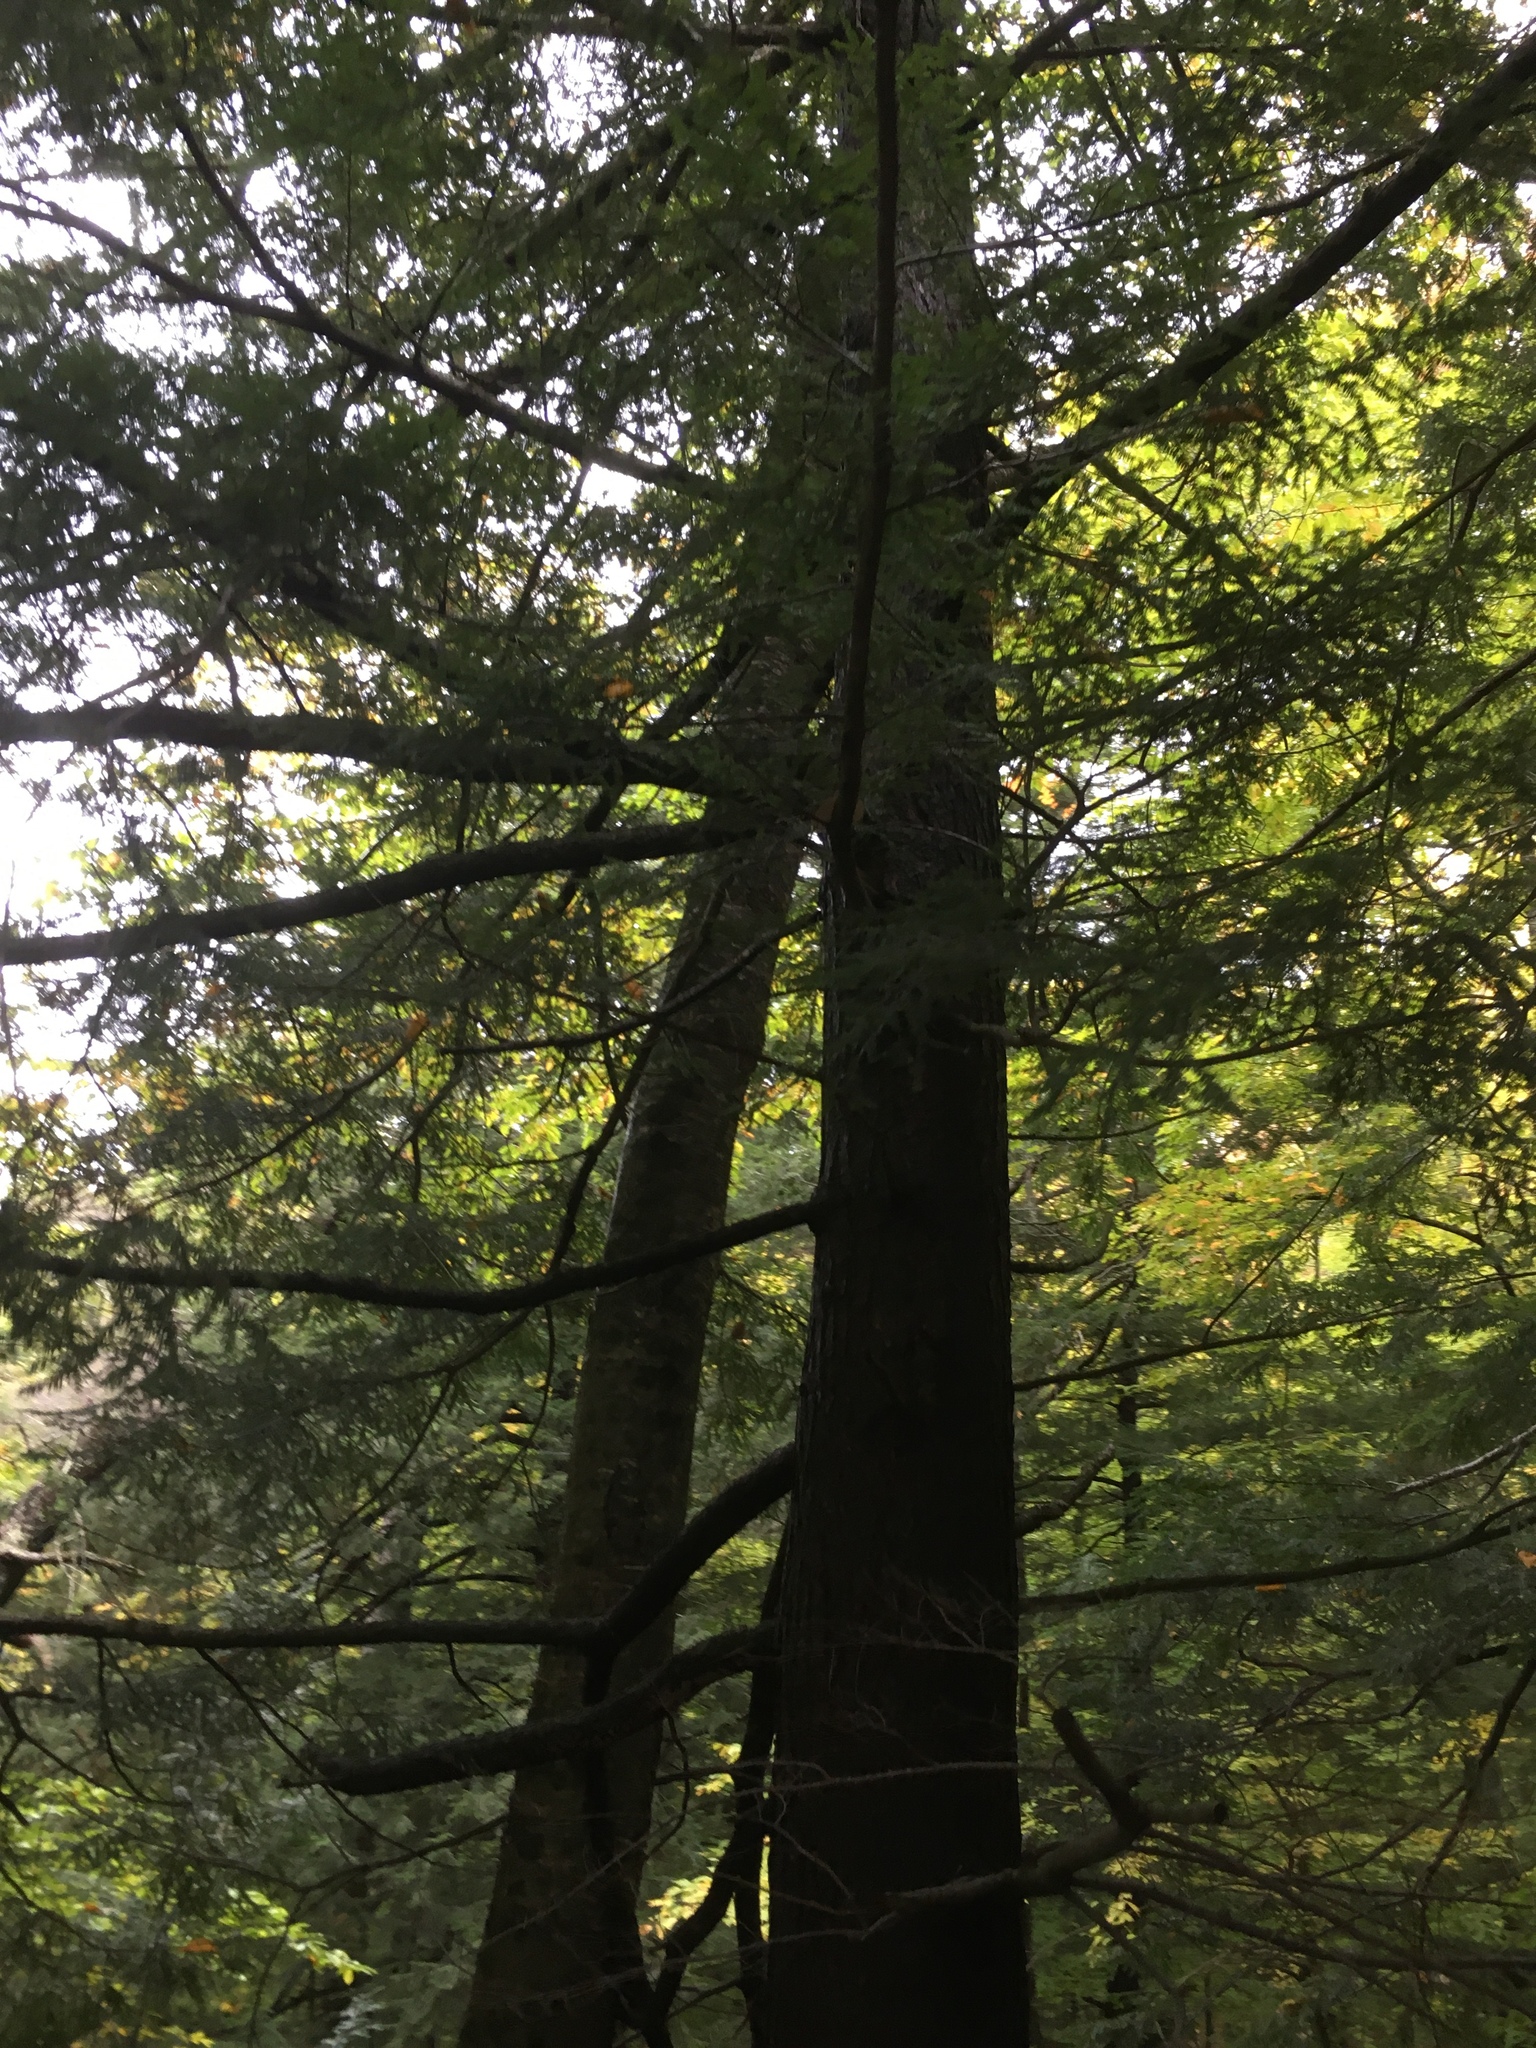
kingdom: Plantae
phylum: Tracheophyta
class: Pinopsida
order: Pinales
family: Pinaceae
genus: Tsuga
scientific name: Tsuga canadensis
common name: Eastern hemlock
